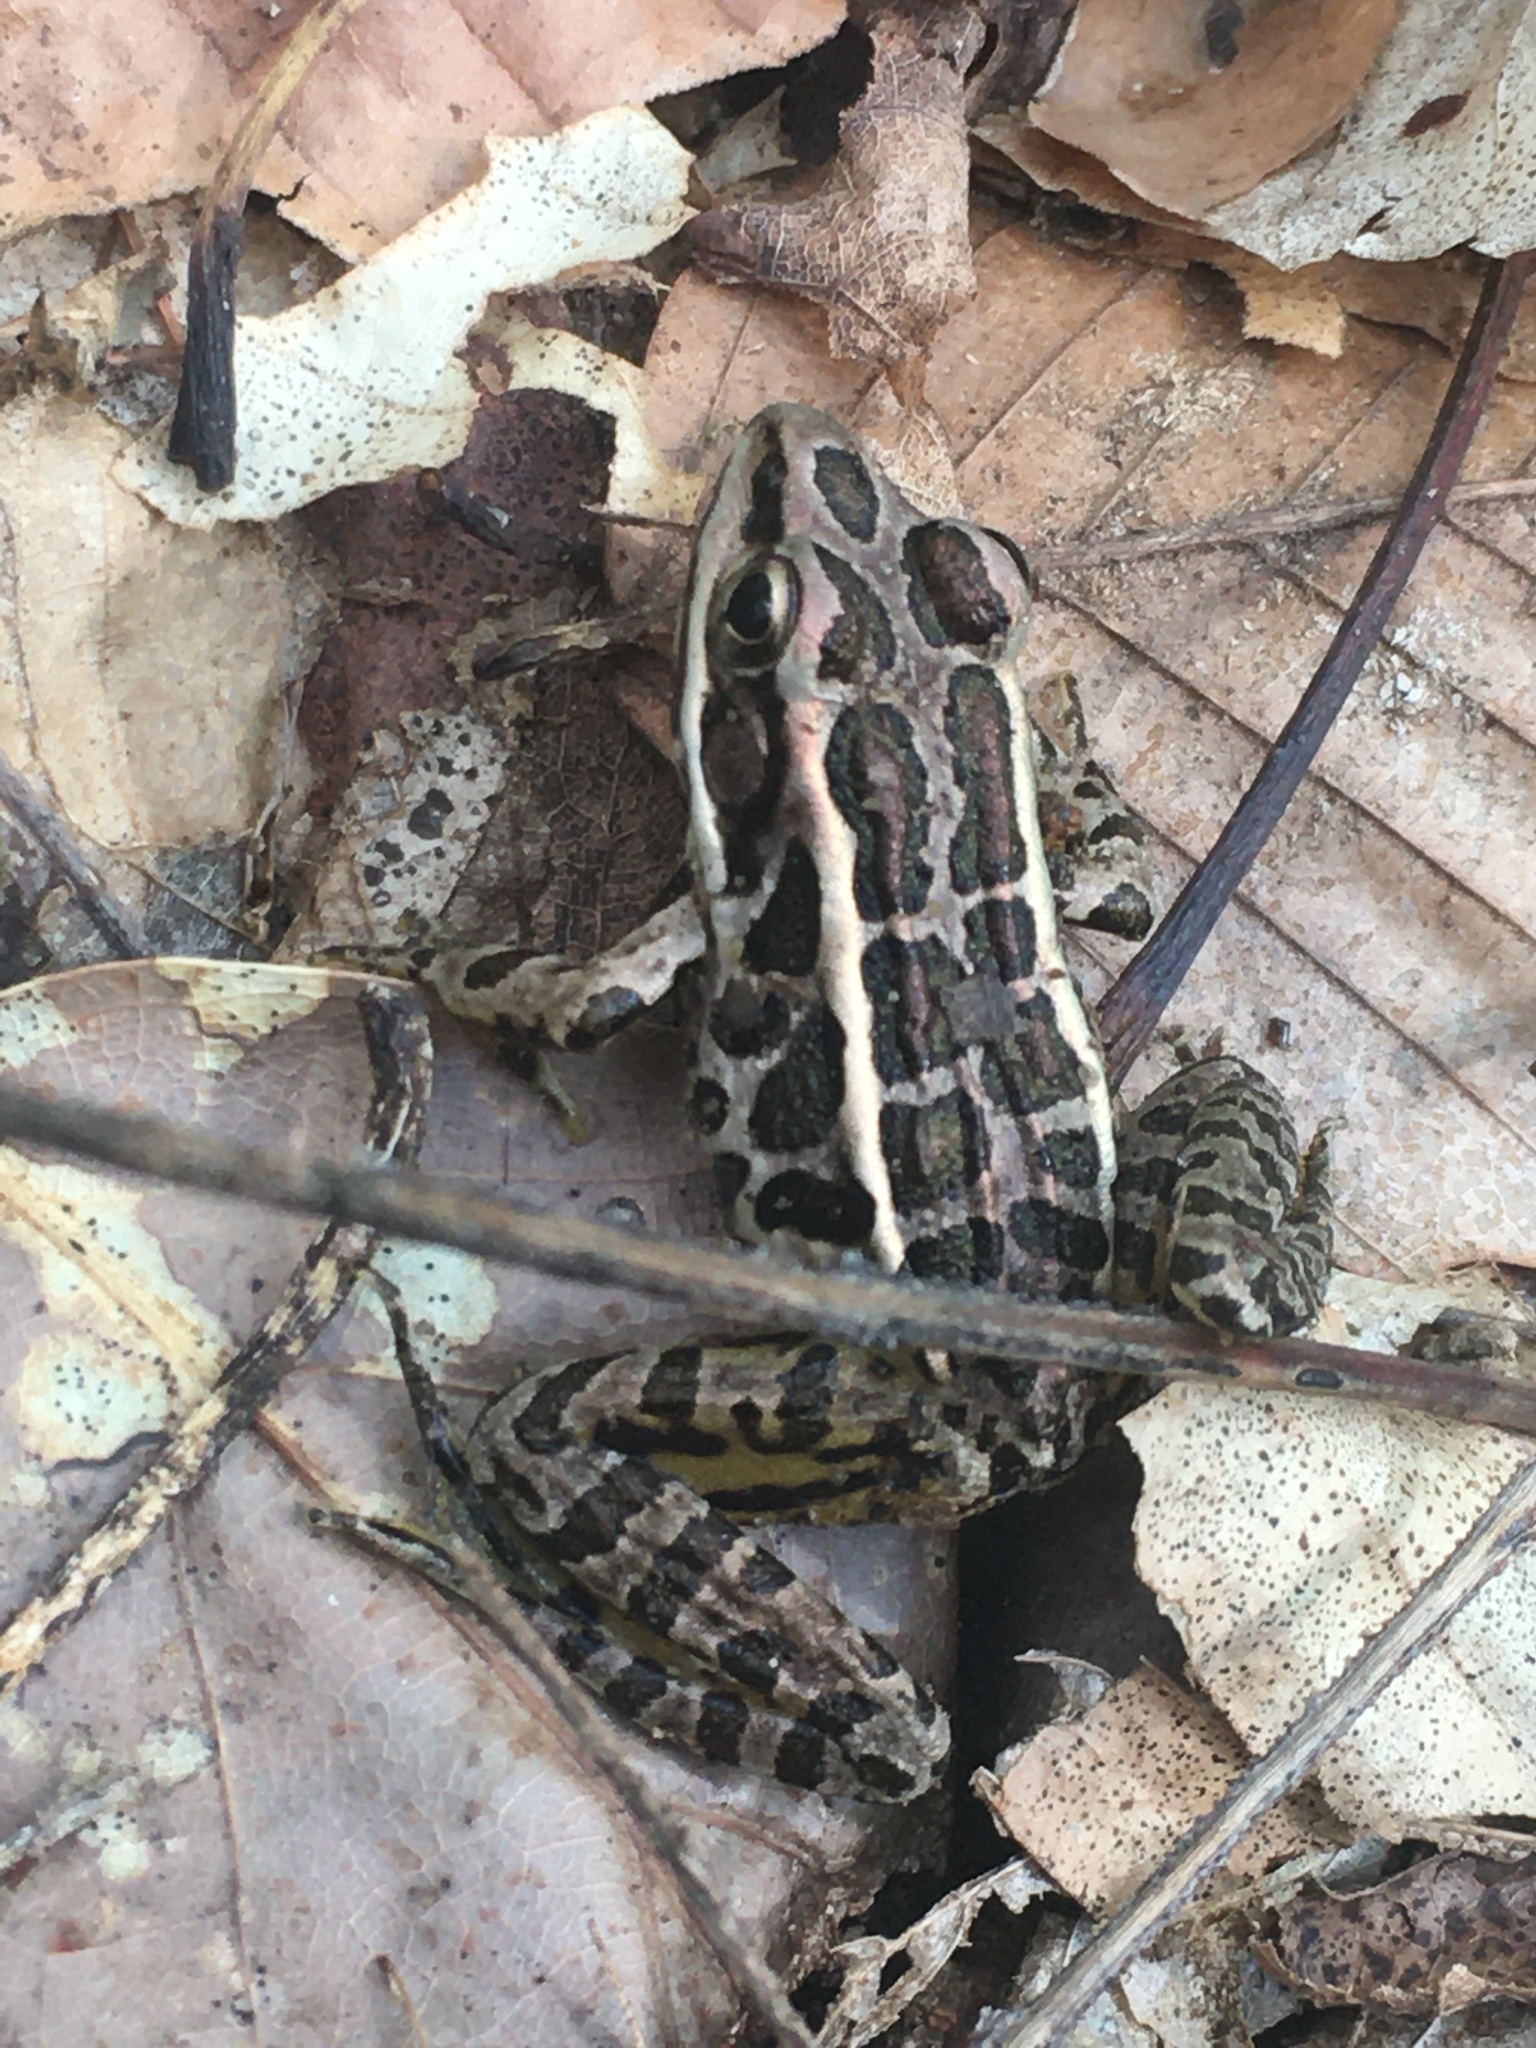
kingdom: Animalia
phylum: Chordata
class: Amphibia
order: Anura
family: Ranidae
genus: Lithobates
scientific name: Lithobates palustris
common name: Pickerel frog
